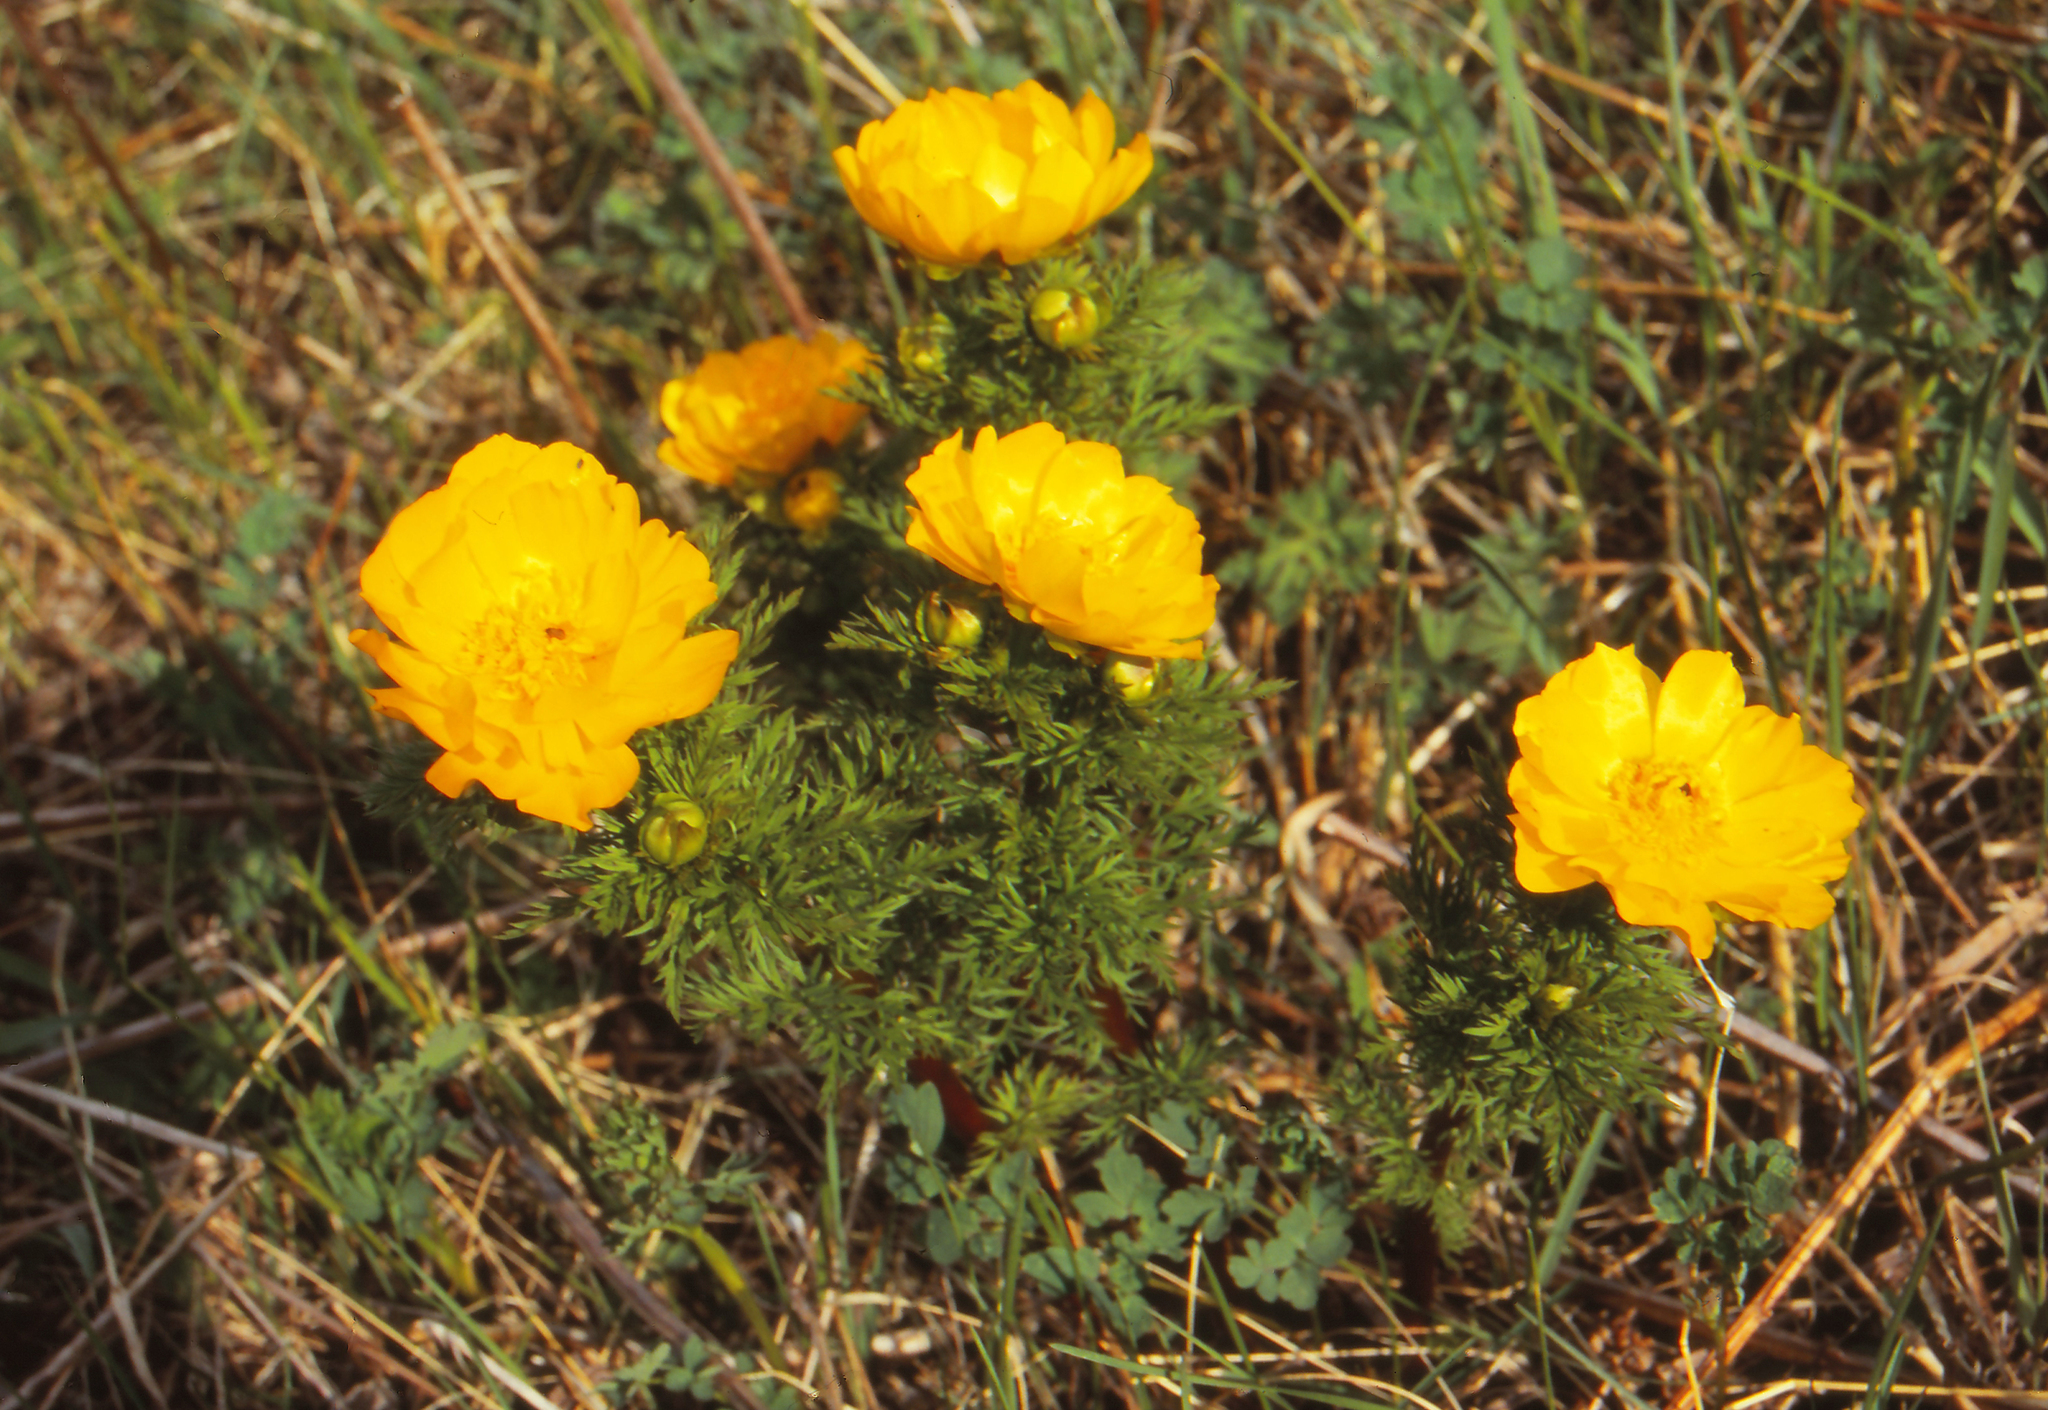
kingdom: Plantae
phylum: Tracheophyta
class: Magnoliopsida
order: Ranunculales
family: Ranunculaceae
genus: Adonis
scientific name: Adonis
